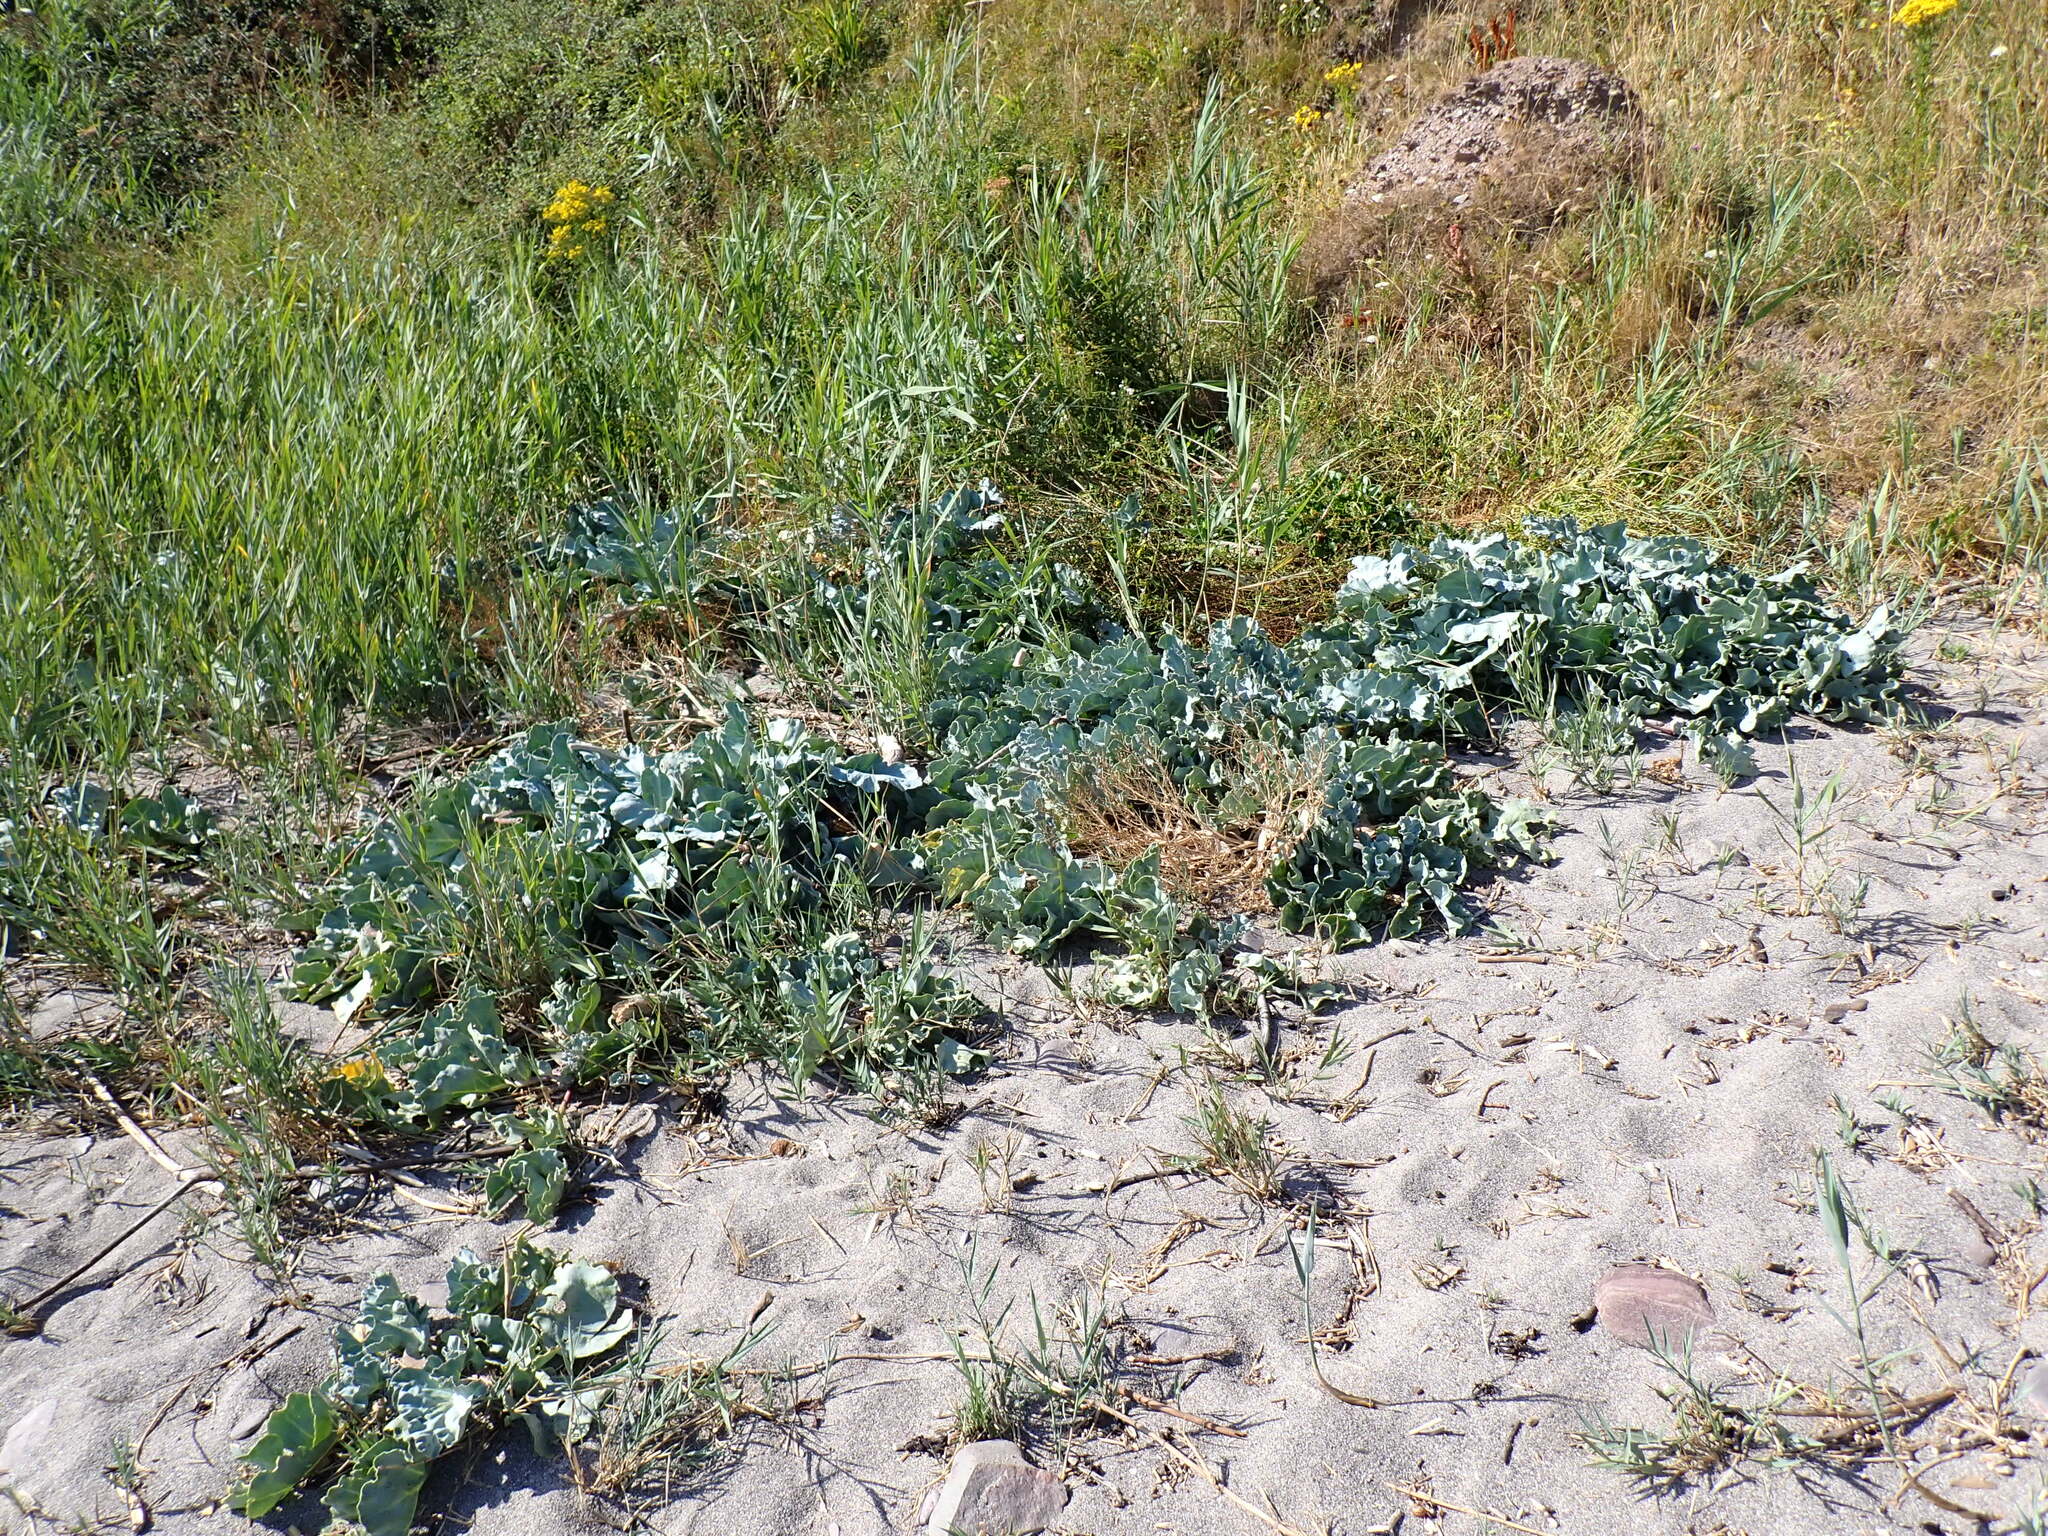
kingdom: Plantae
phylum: Tracheophyta
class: Magnoliopsida
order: Brassicales
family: Brassicaceae
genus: Crambe
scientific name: Crambe maritima
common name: Sea-kale
